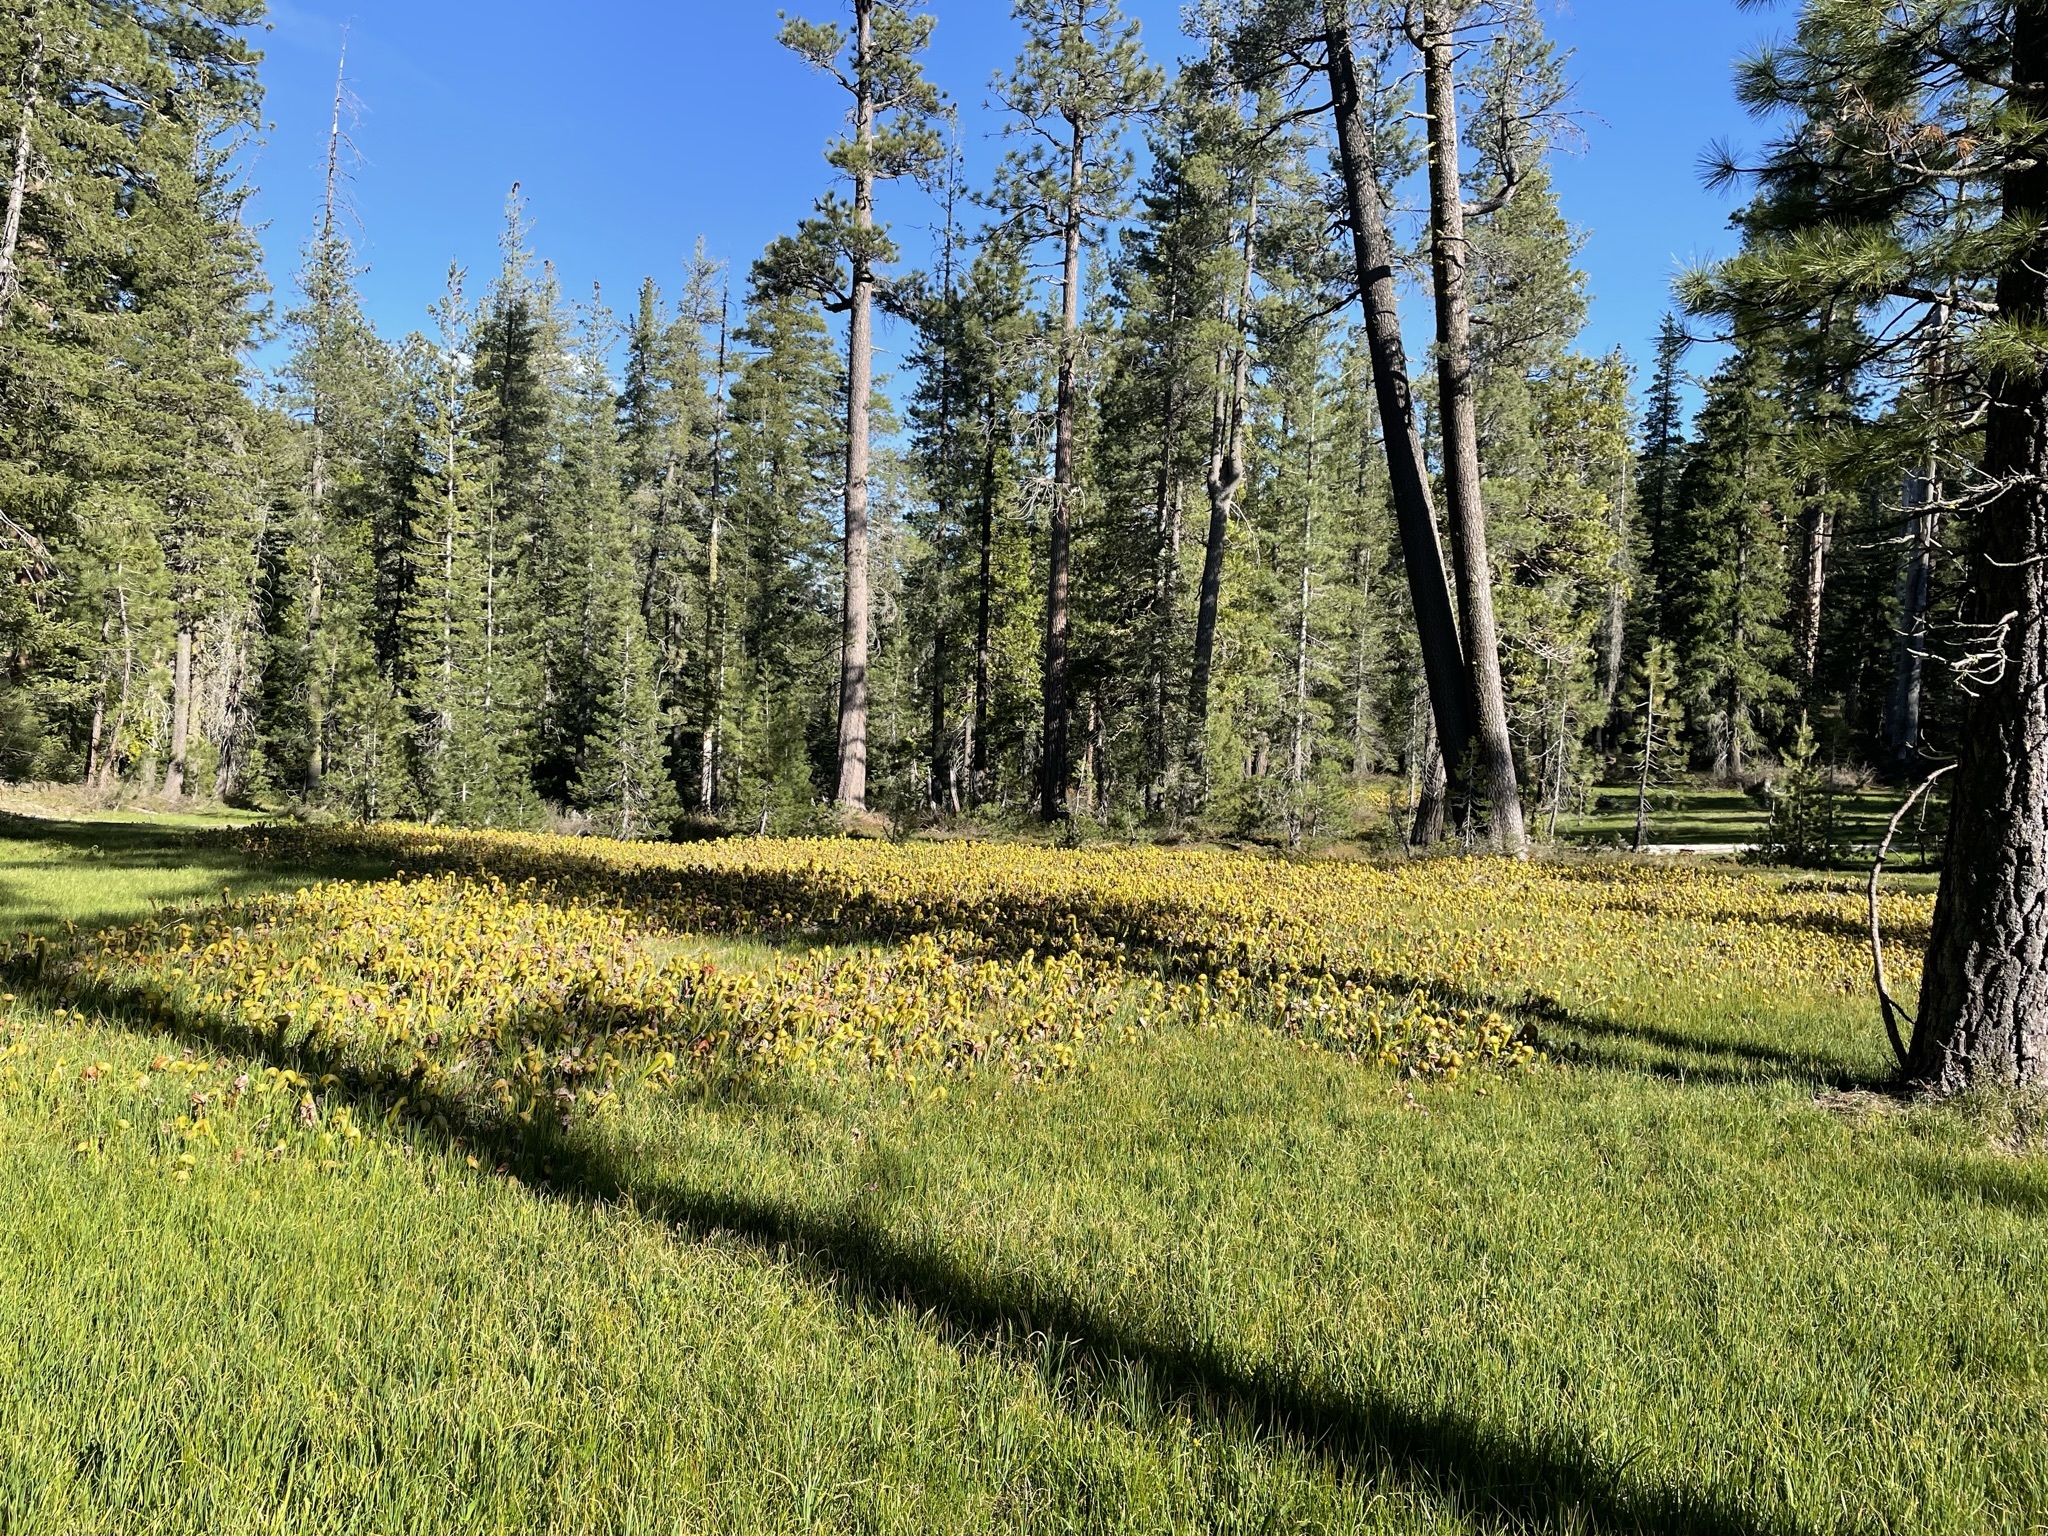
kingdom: Plantae
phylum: Tracheophyta
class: Magnoliopsida
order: Ericales
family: Sarraceniaceae
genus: Darlingtonia
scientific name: Darlingtonia californica
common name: California pitcher plant
